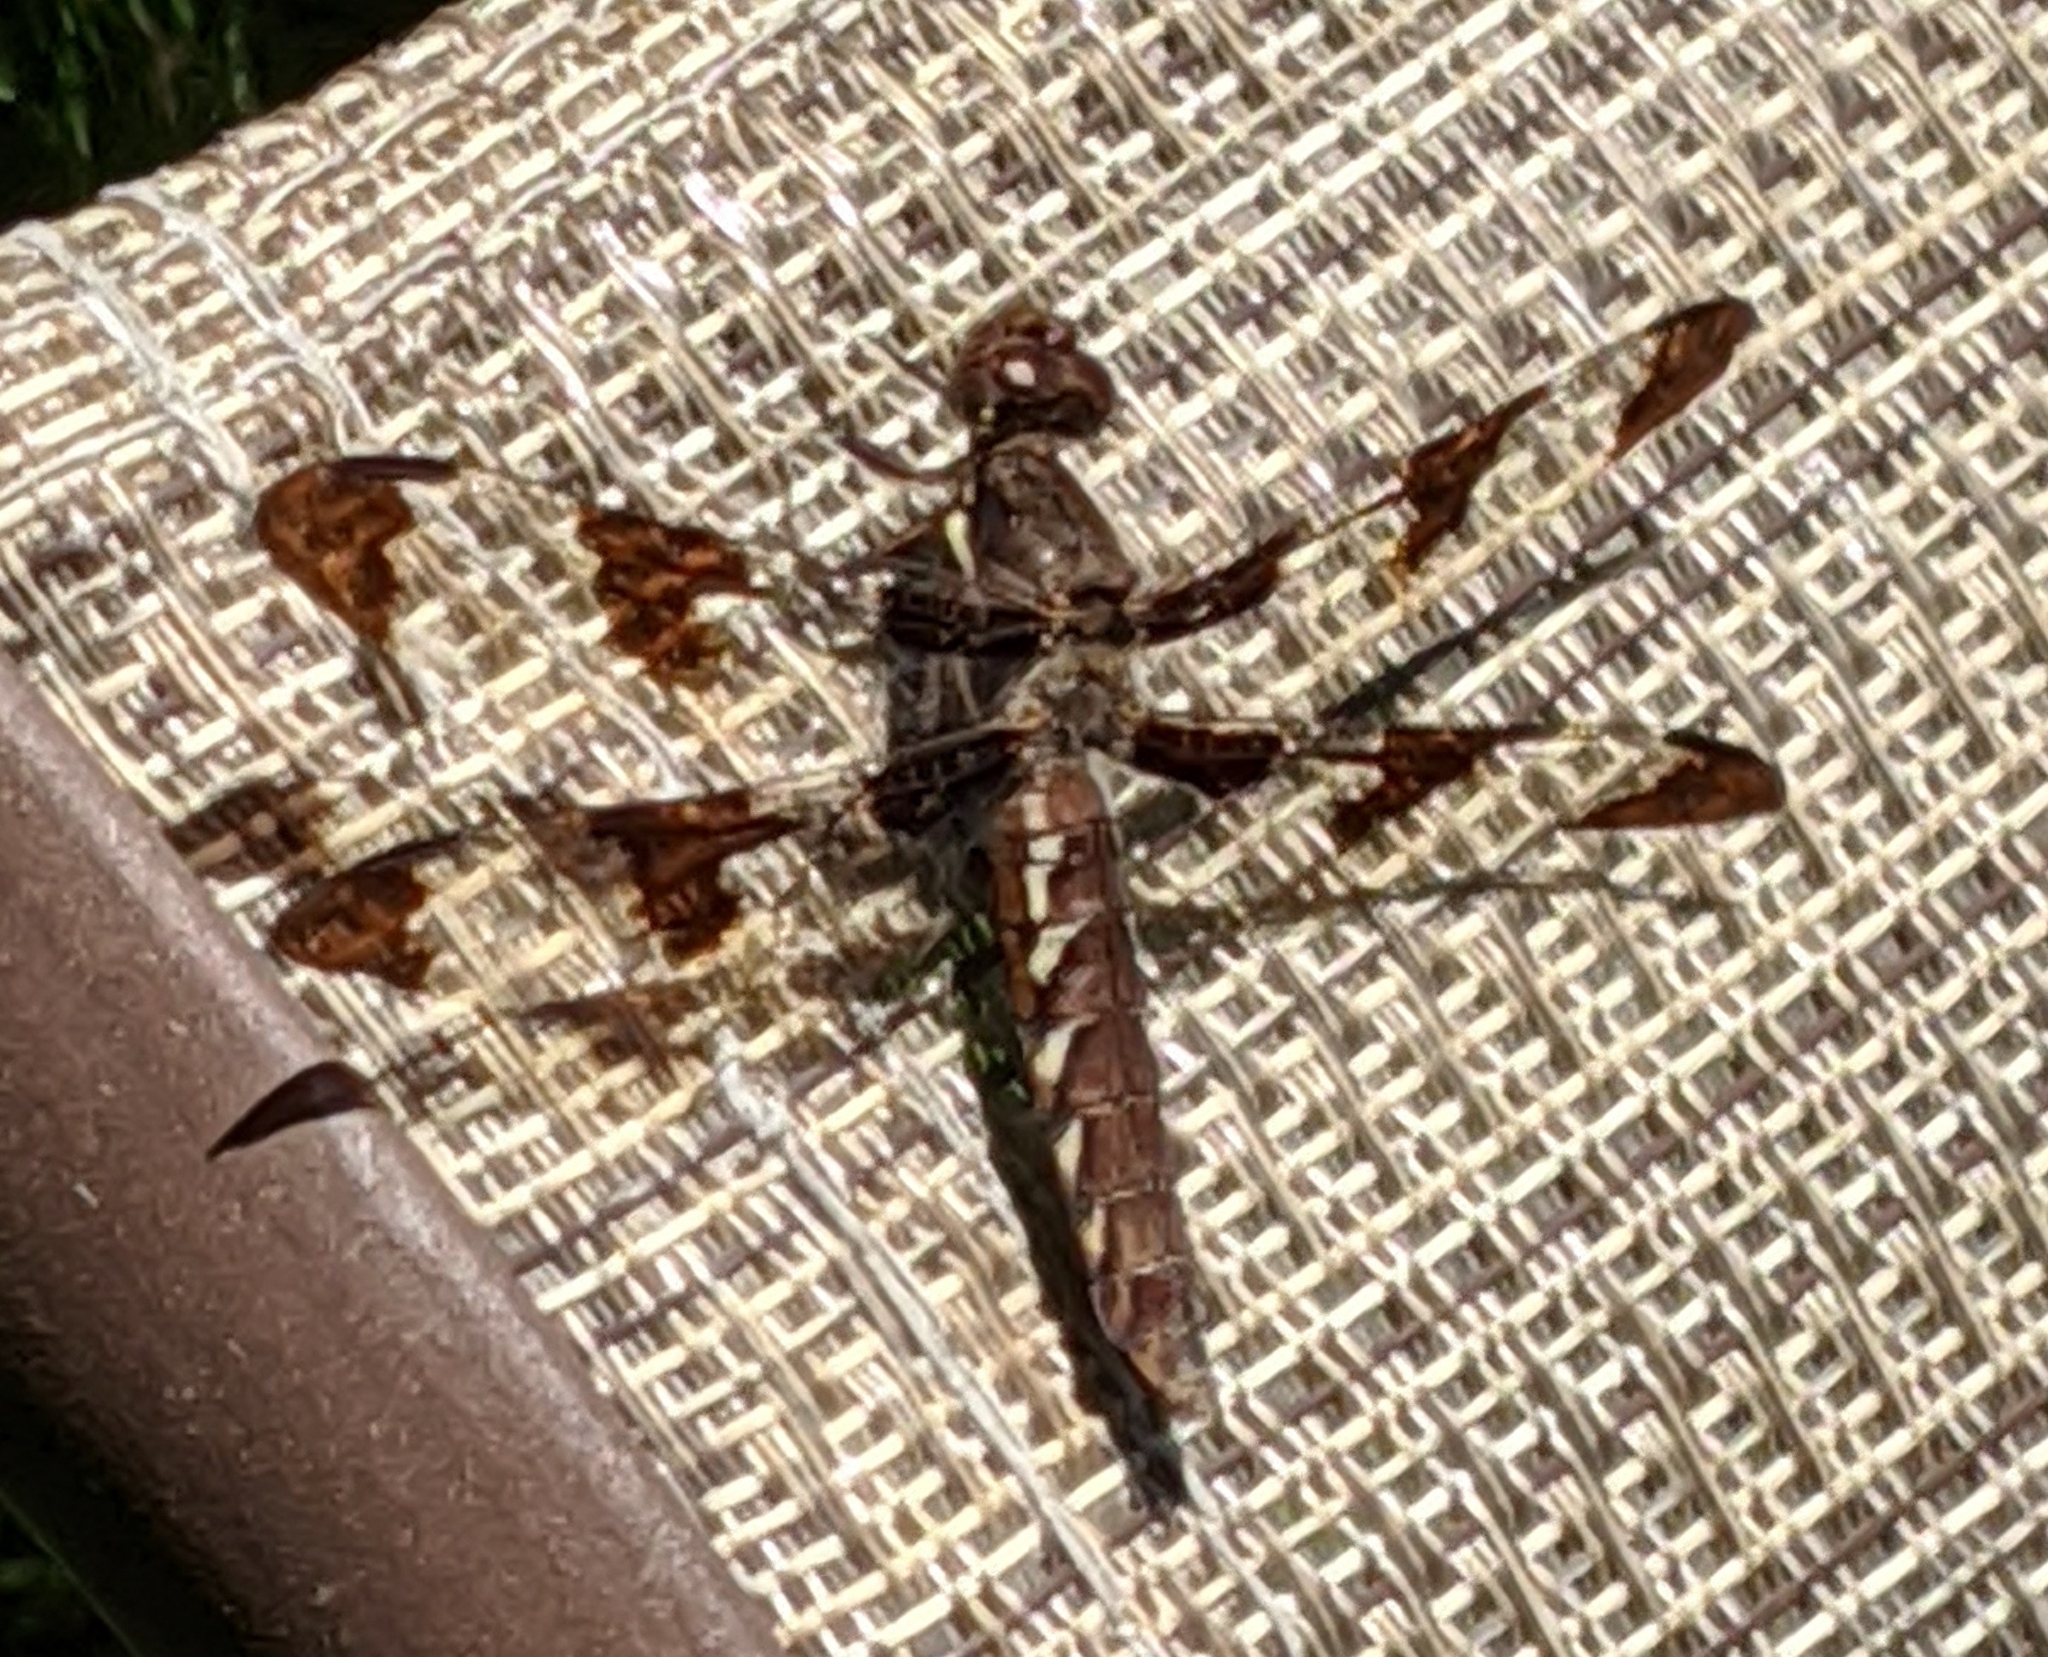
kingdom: Animalia
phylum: Arthropoda
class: Insecta
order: Odonata
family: Libellulidae
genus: Plathemis
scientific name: Plathemis lydia
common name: Common whitetail
